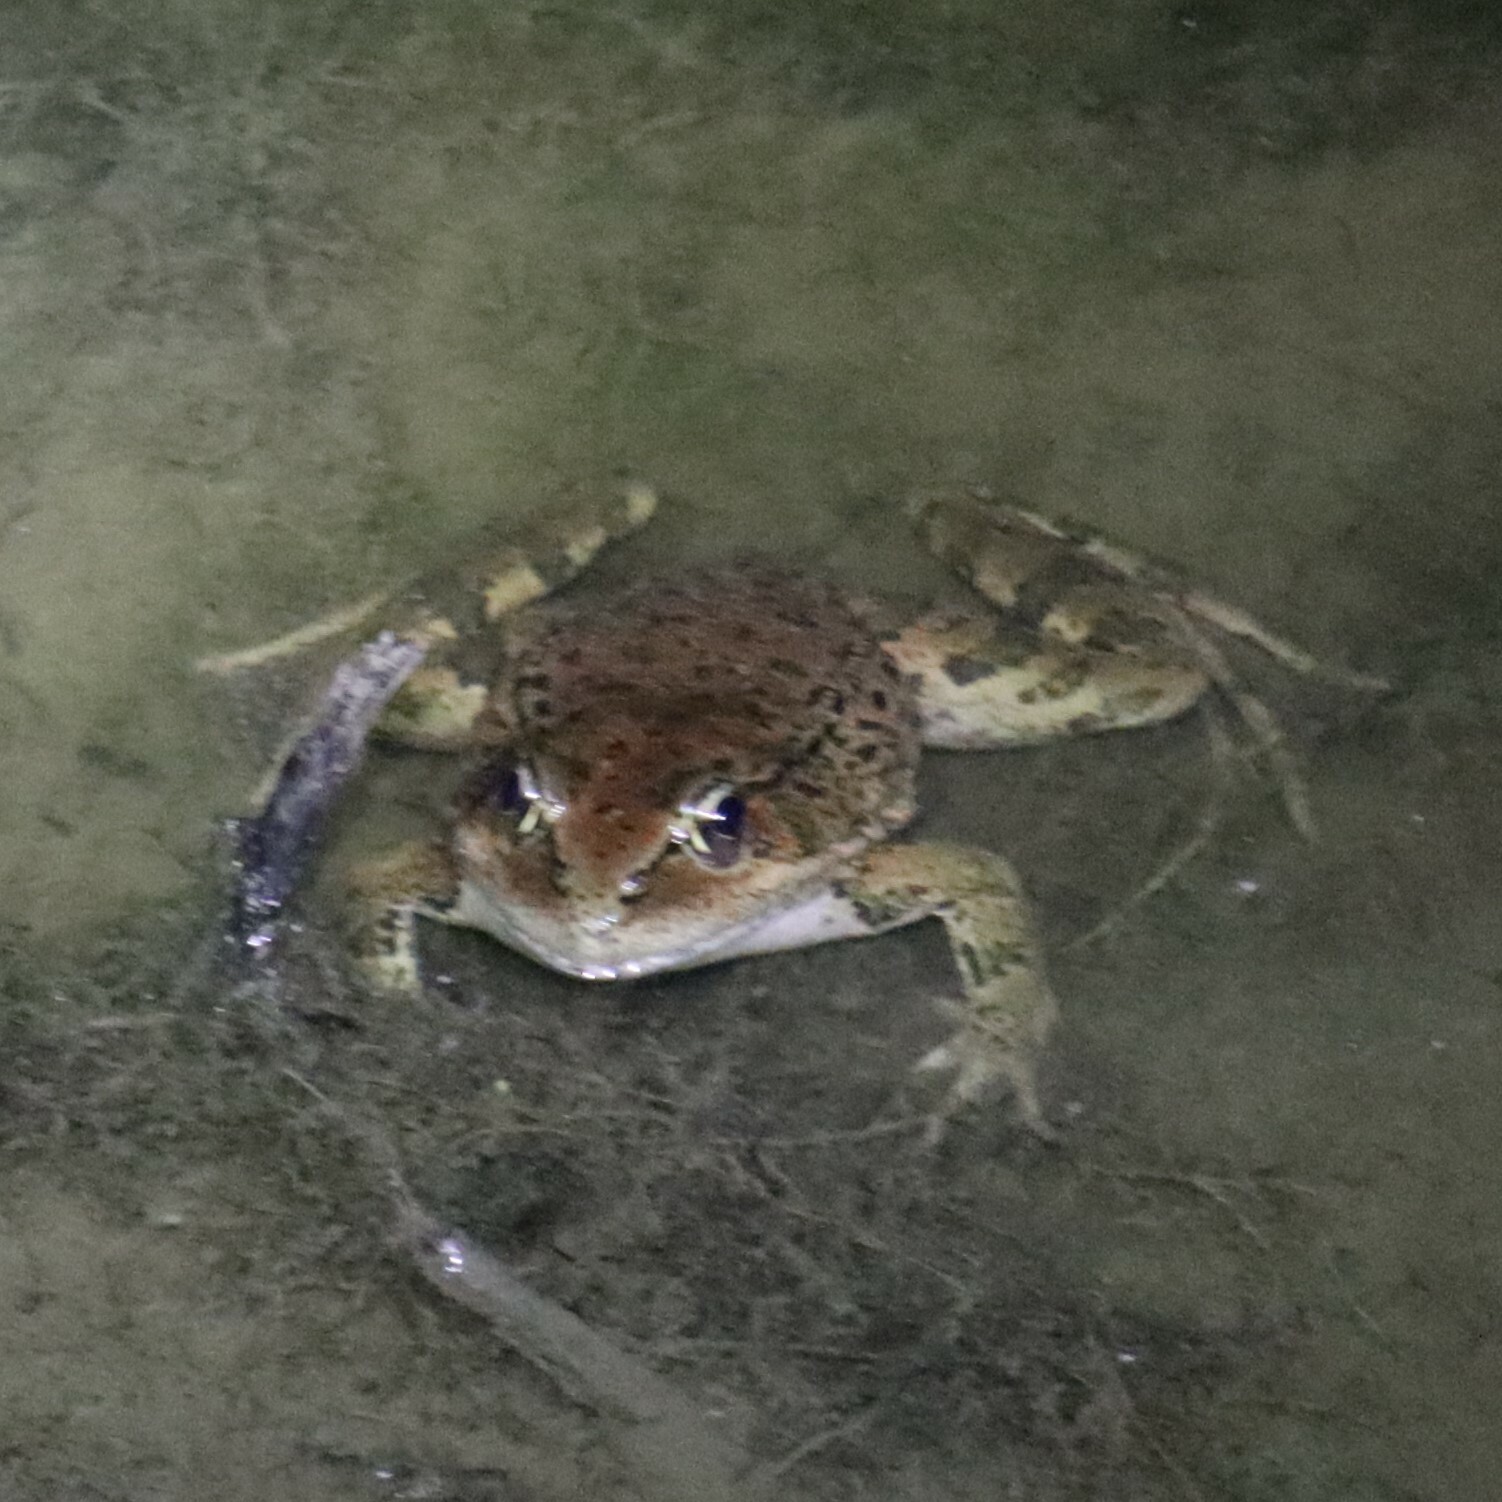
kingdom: Animalia
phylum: Chordata
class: Amphibia
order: Anura
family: Ranidae
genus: Rana
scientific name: Rana draytonii
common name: California red-legged frog
